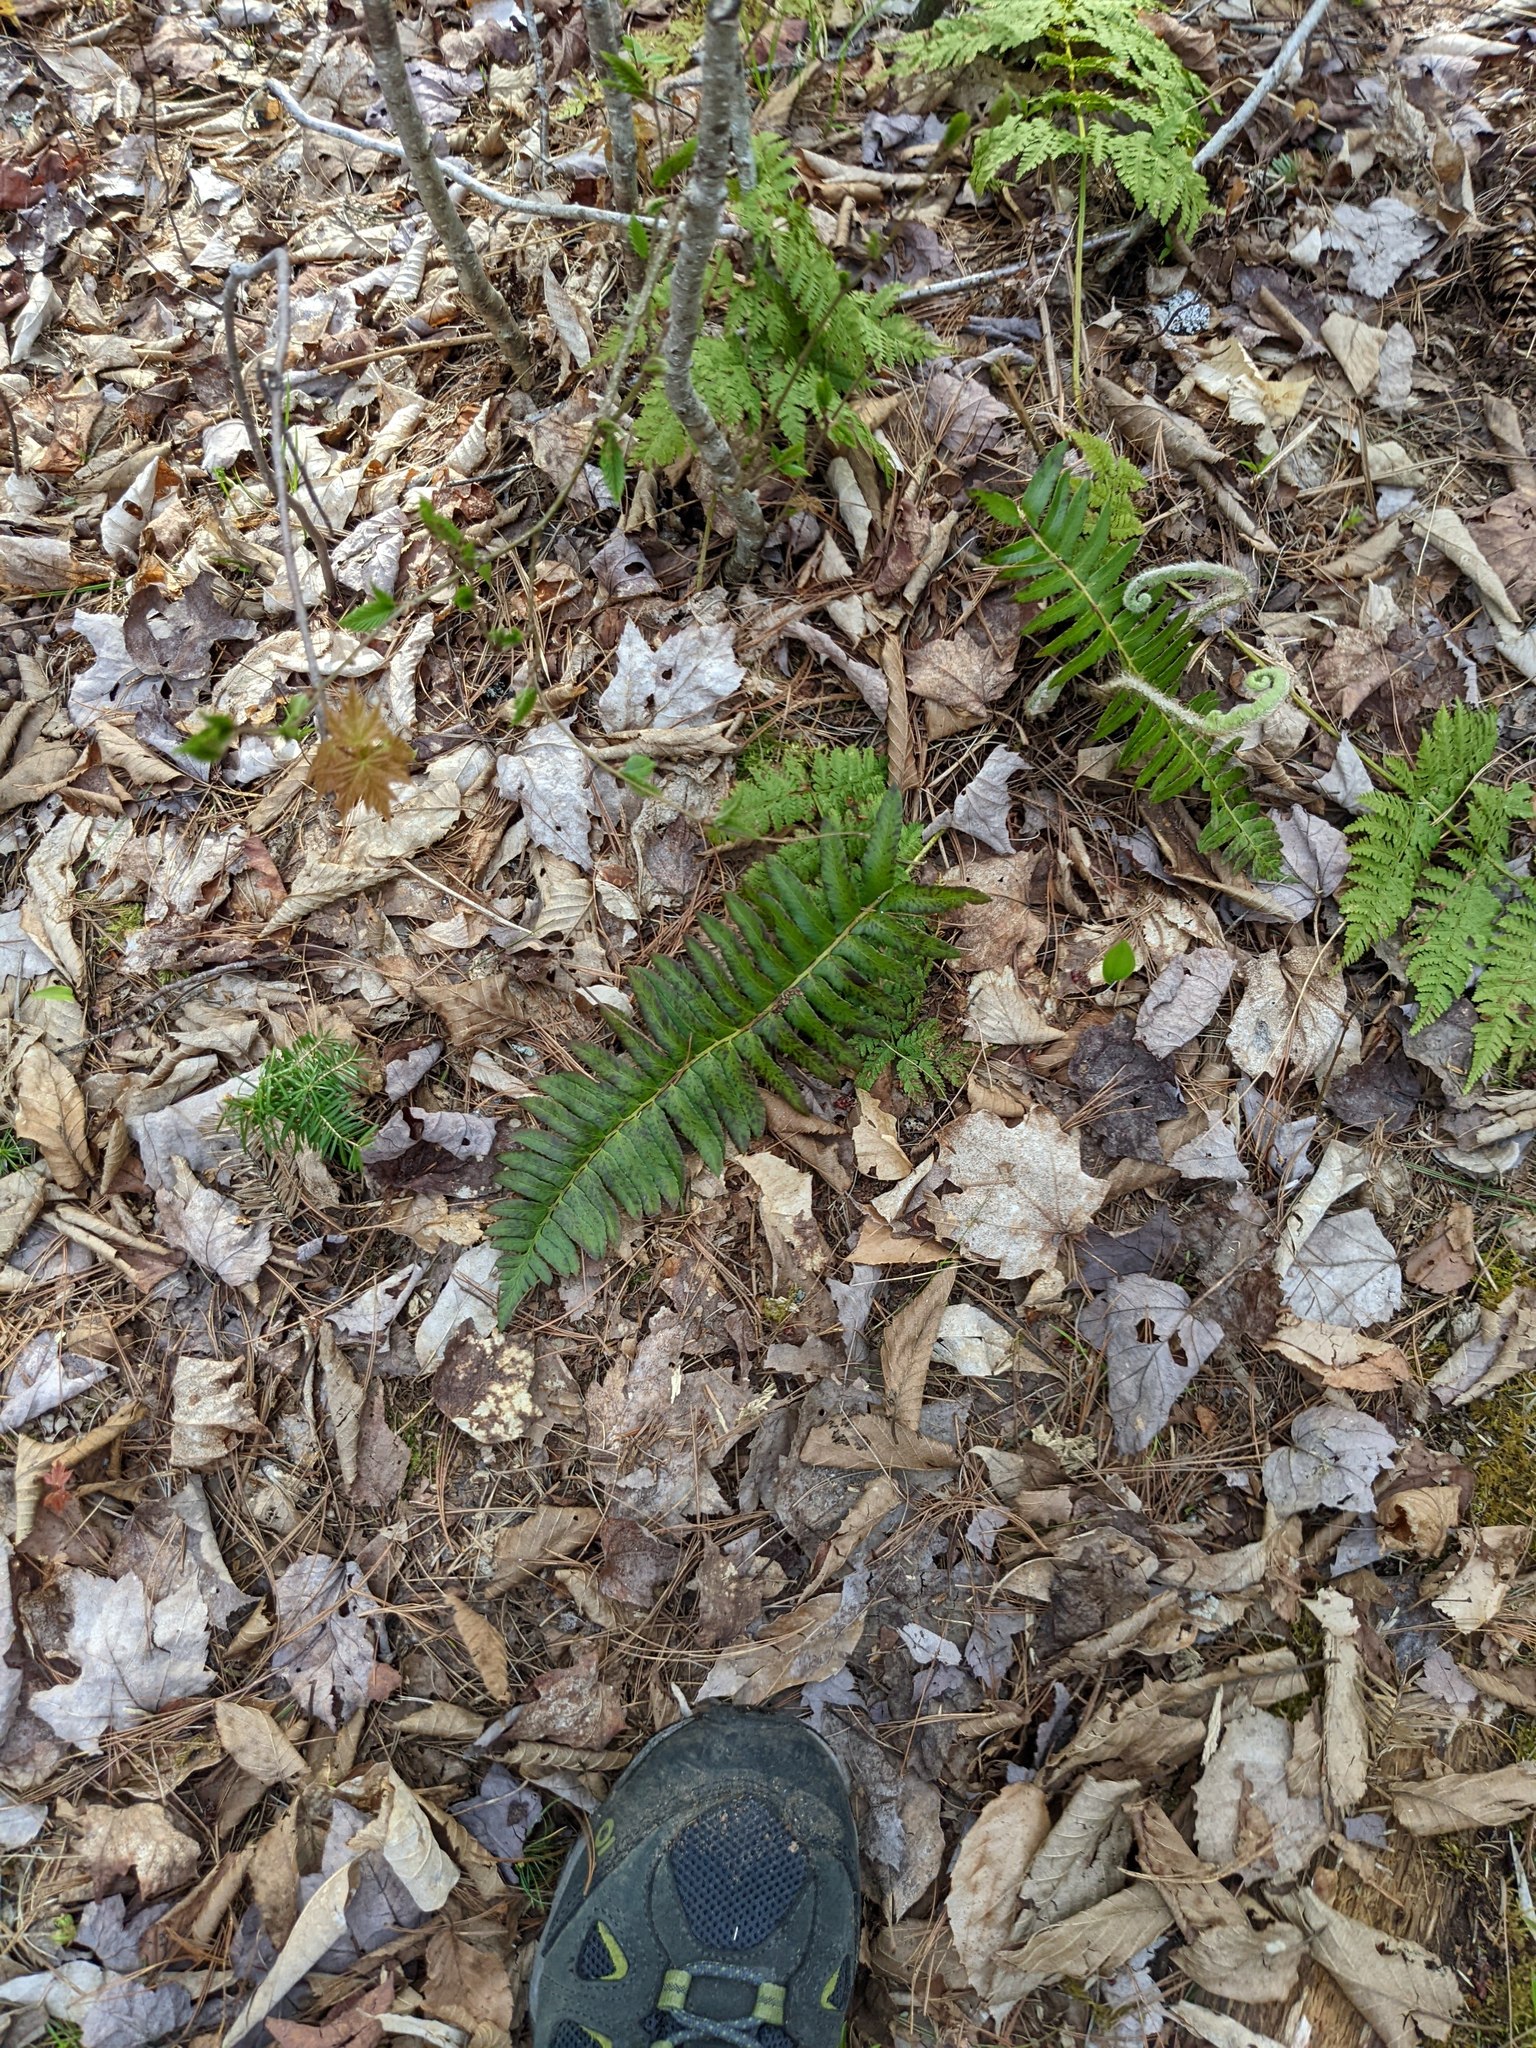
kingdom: Plantae
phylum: Tracheophyta
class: Polypodiopsida
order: Polypodiales
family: Dryopteridaceae
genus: Polystichum
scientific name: Polystichum acrostichoides
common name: Christmas fern
